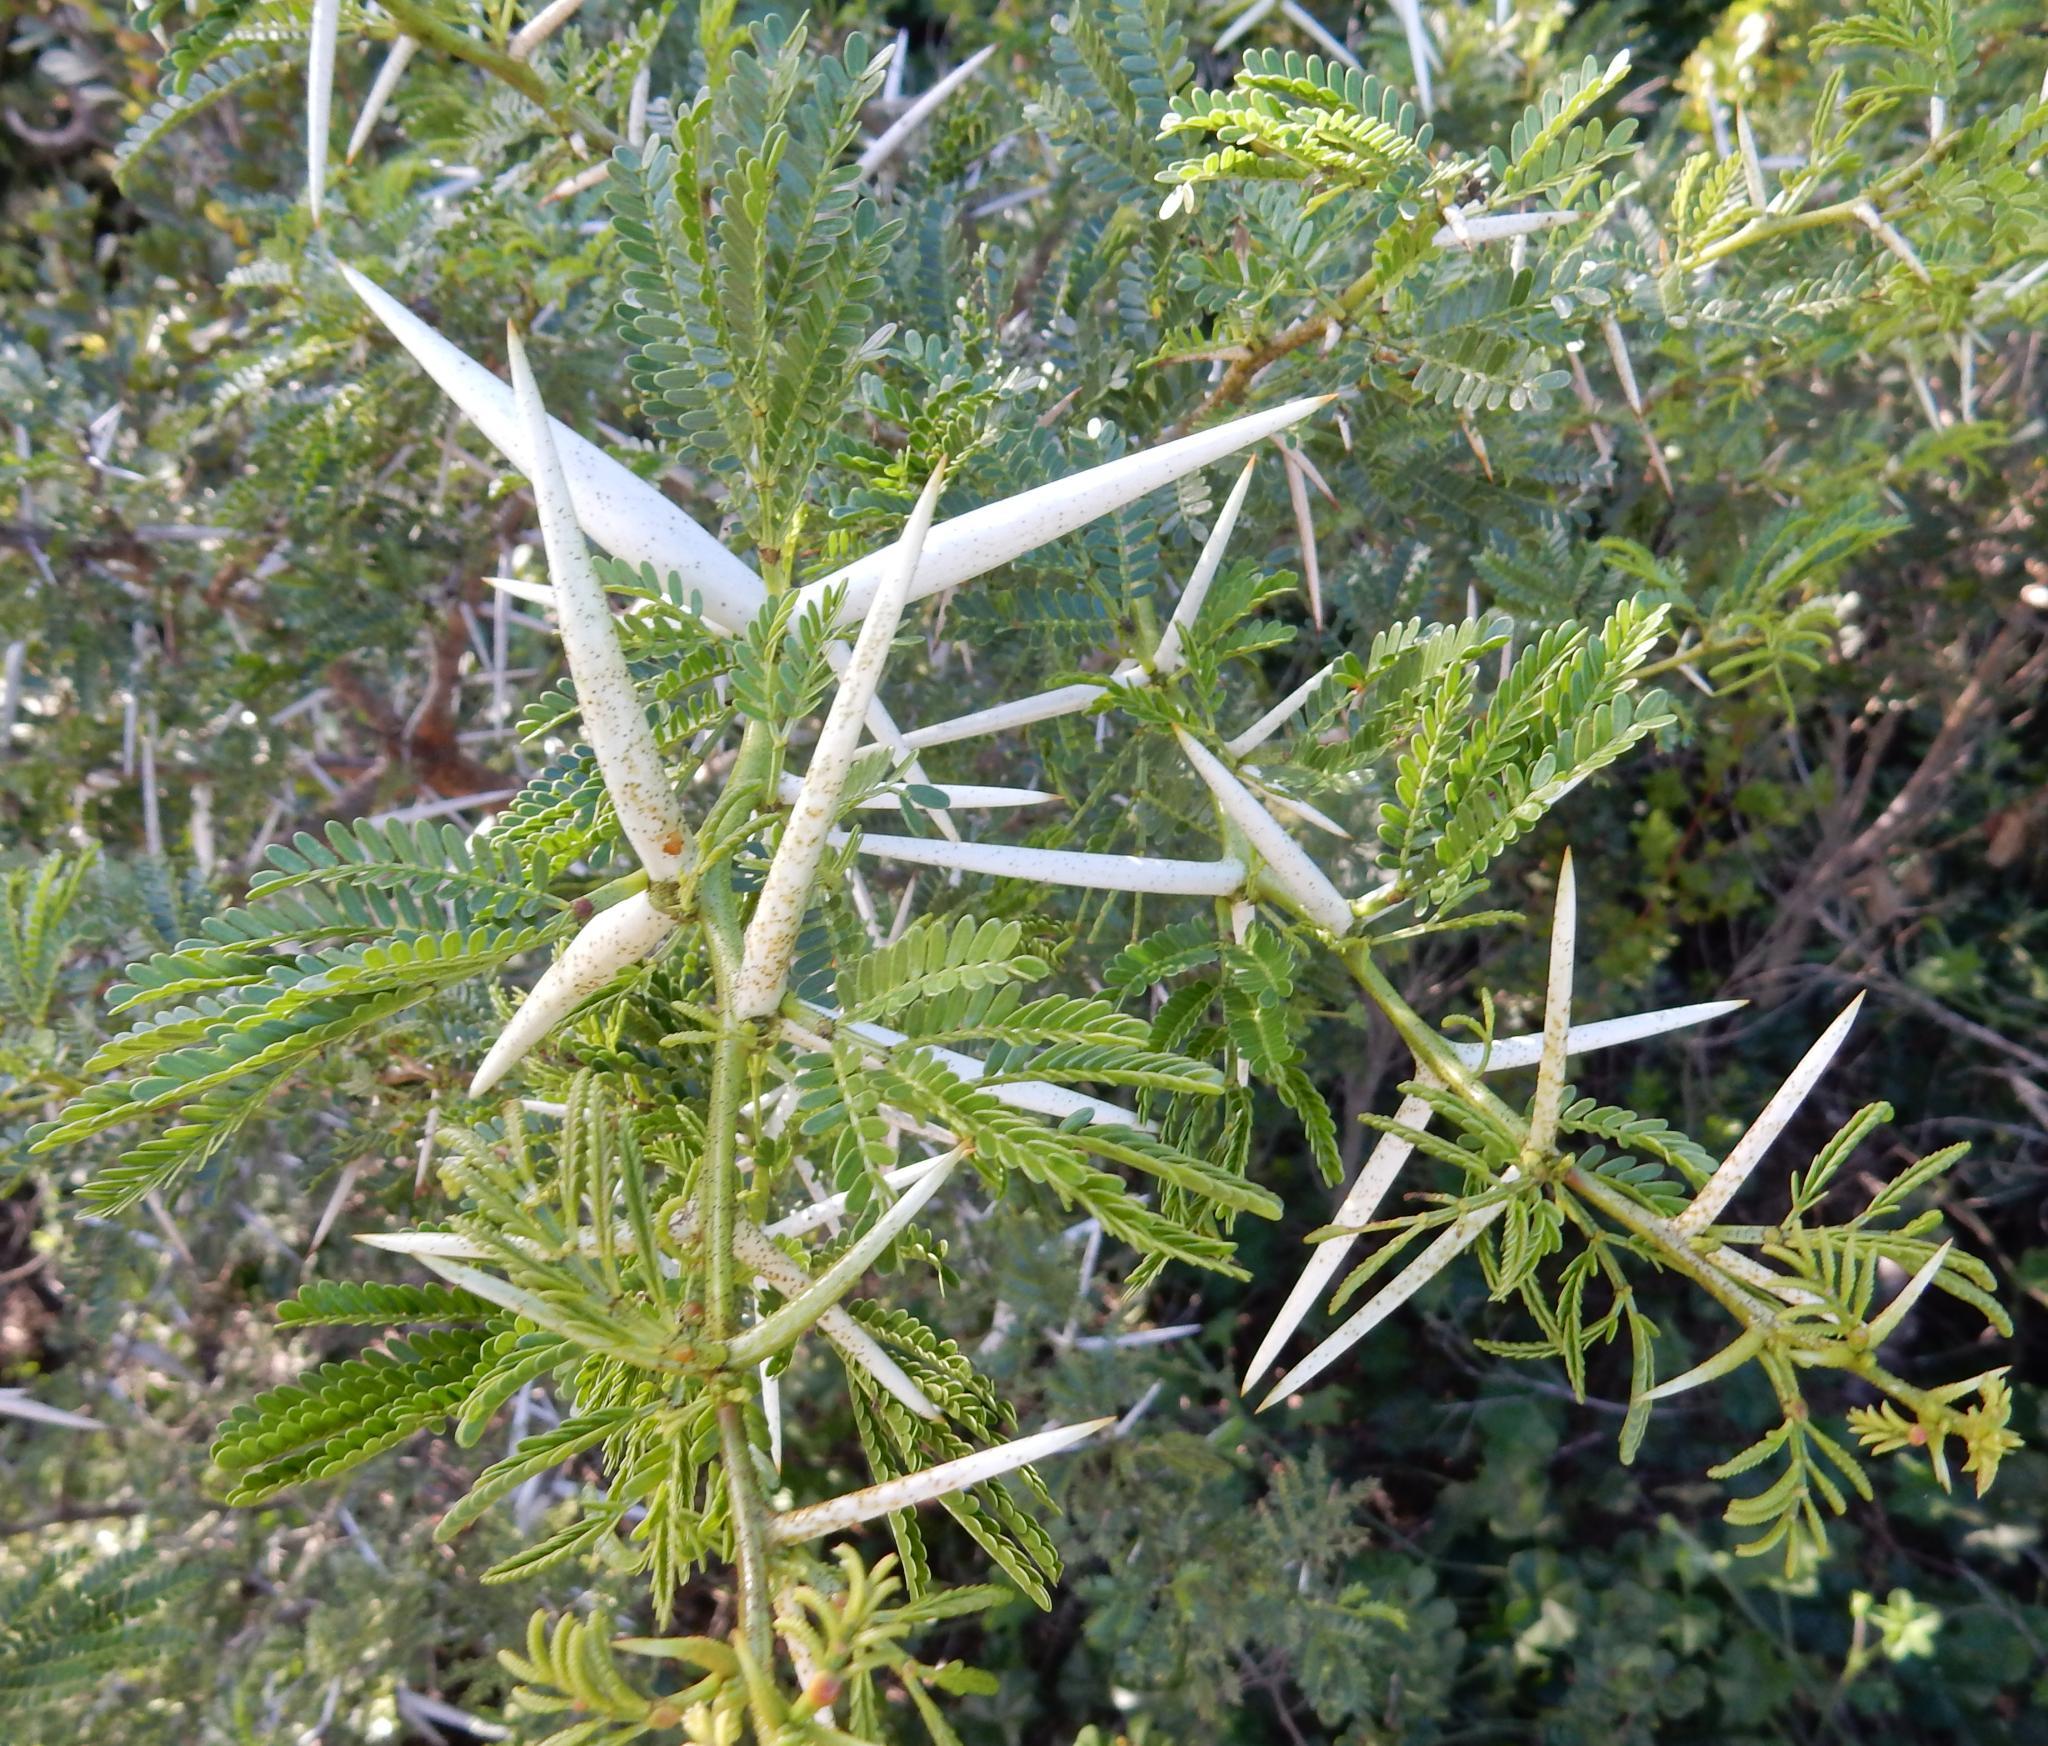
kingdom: Plantae
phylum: Tracheophyta
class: Magnoliopsida
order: Fabales
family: Fabaceae
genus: Vachellia
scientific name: Vachellia karroo
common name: Sweet thorn
